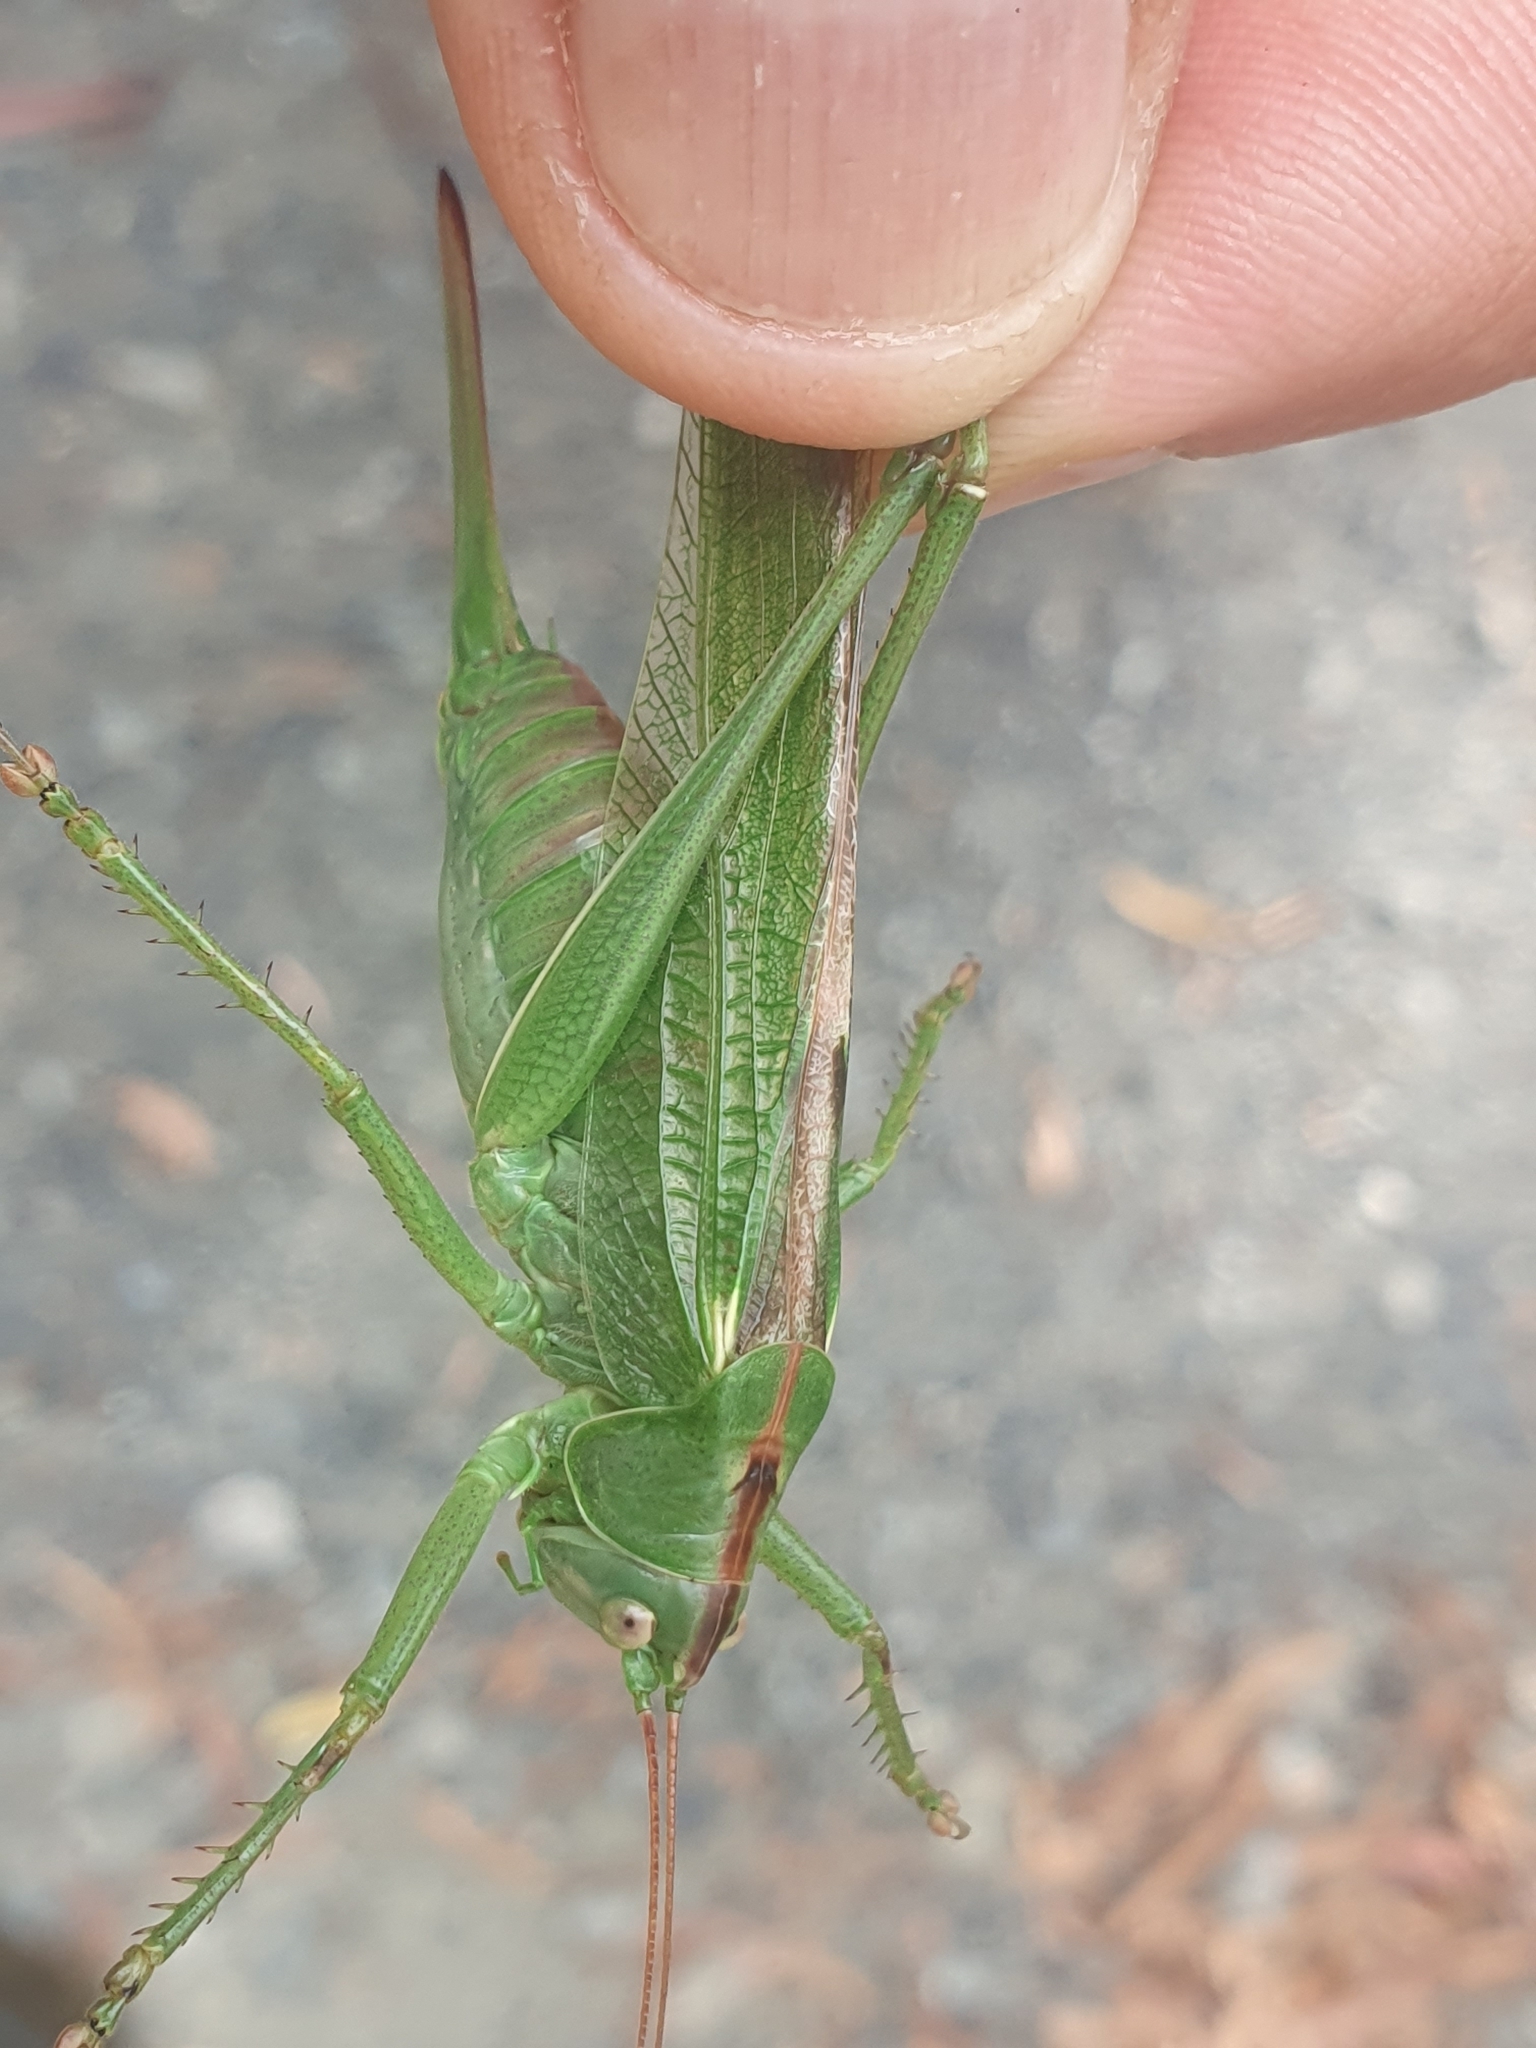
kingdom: Animalia
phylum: Arthropoda
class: Insecta
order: Orthoptera
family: Tettigoniidae
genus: Tettigonia
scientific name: Tettigonia viridissima
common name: Great green bush-cricket
